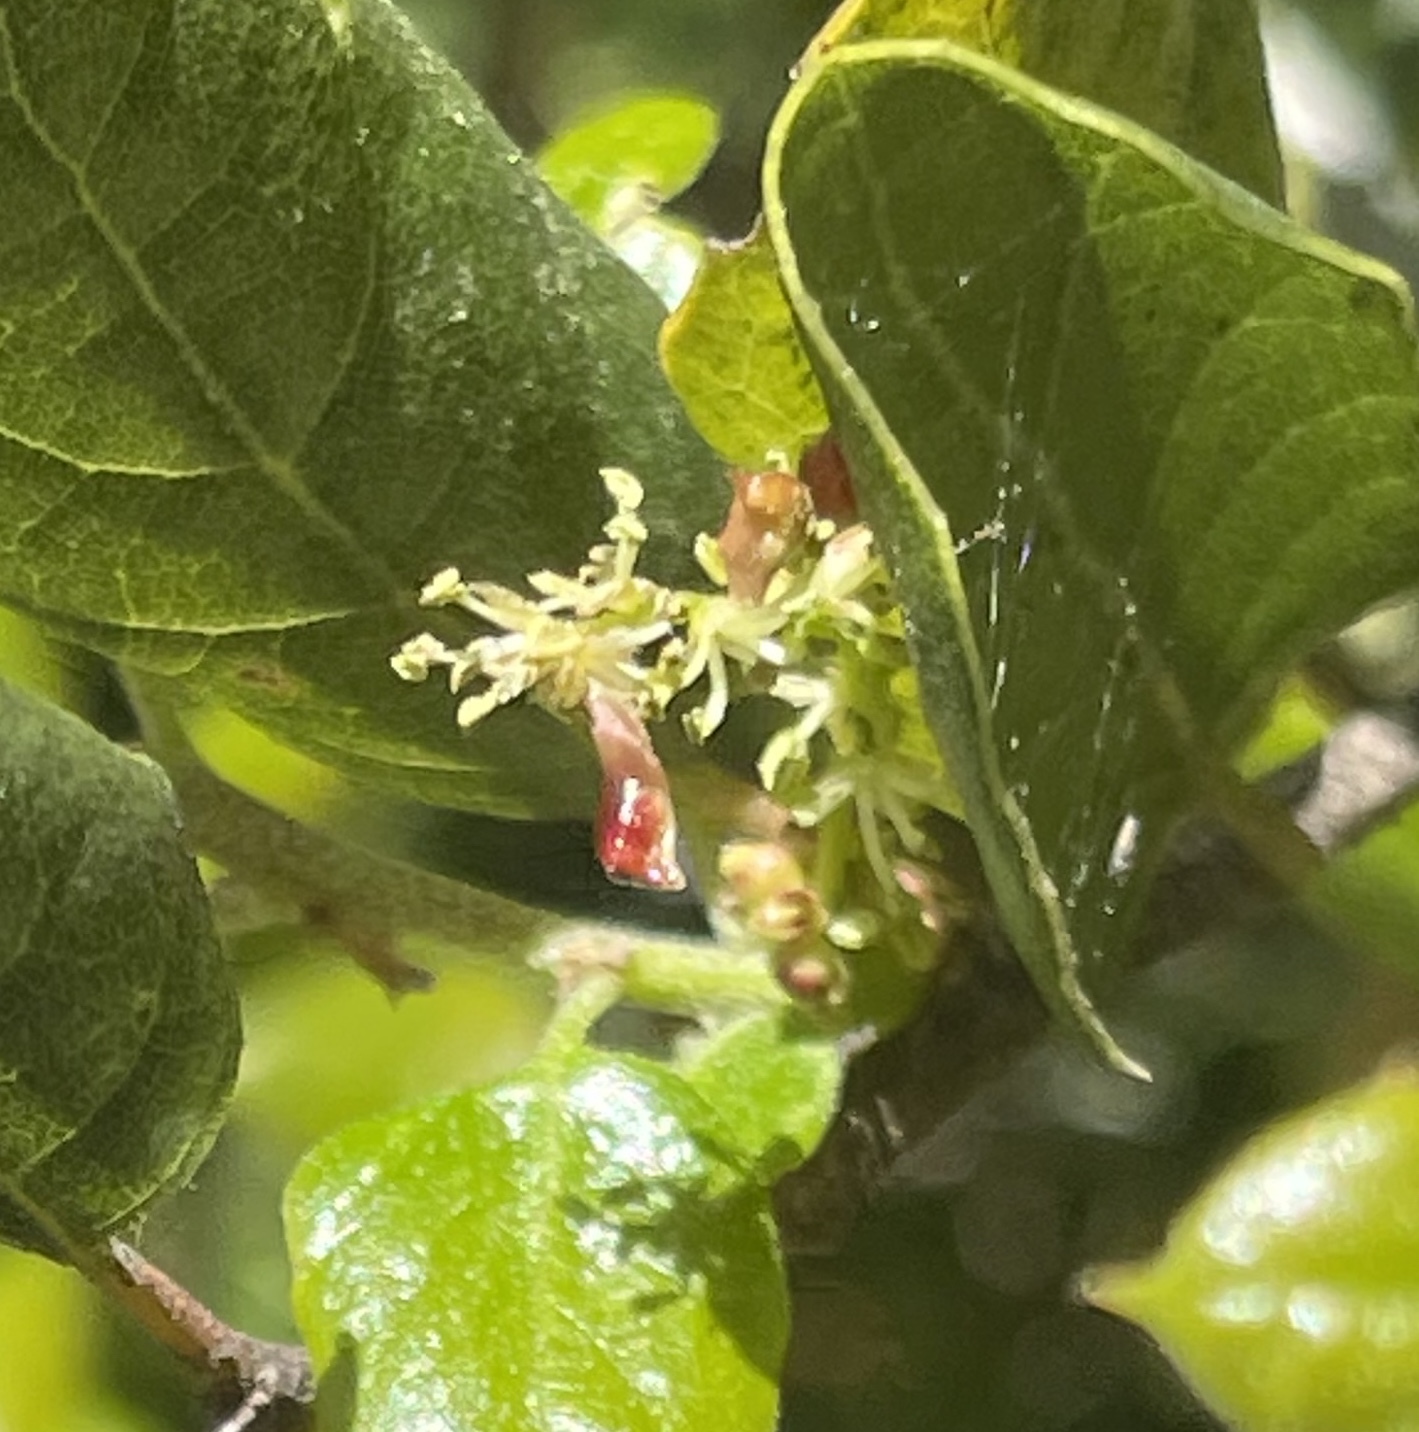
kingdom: Animalia
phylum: Arthropoda
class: Insecta
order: Hymenoptera
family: Cynipidae
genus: Dryocosmus
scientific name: Dryocosmus
